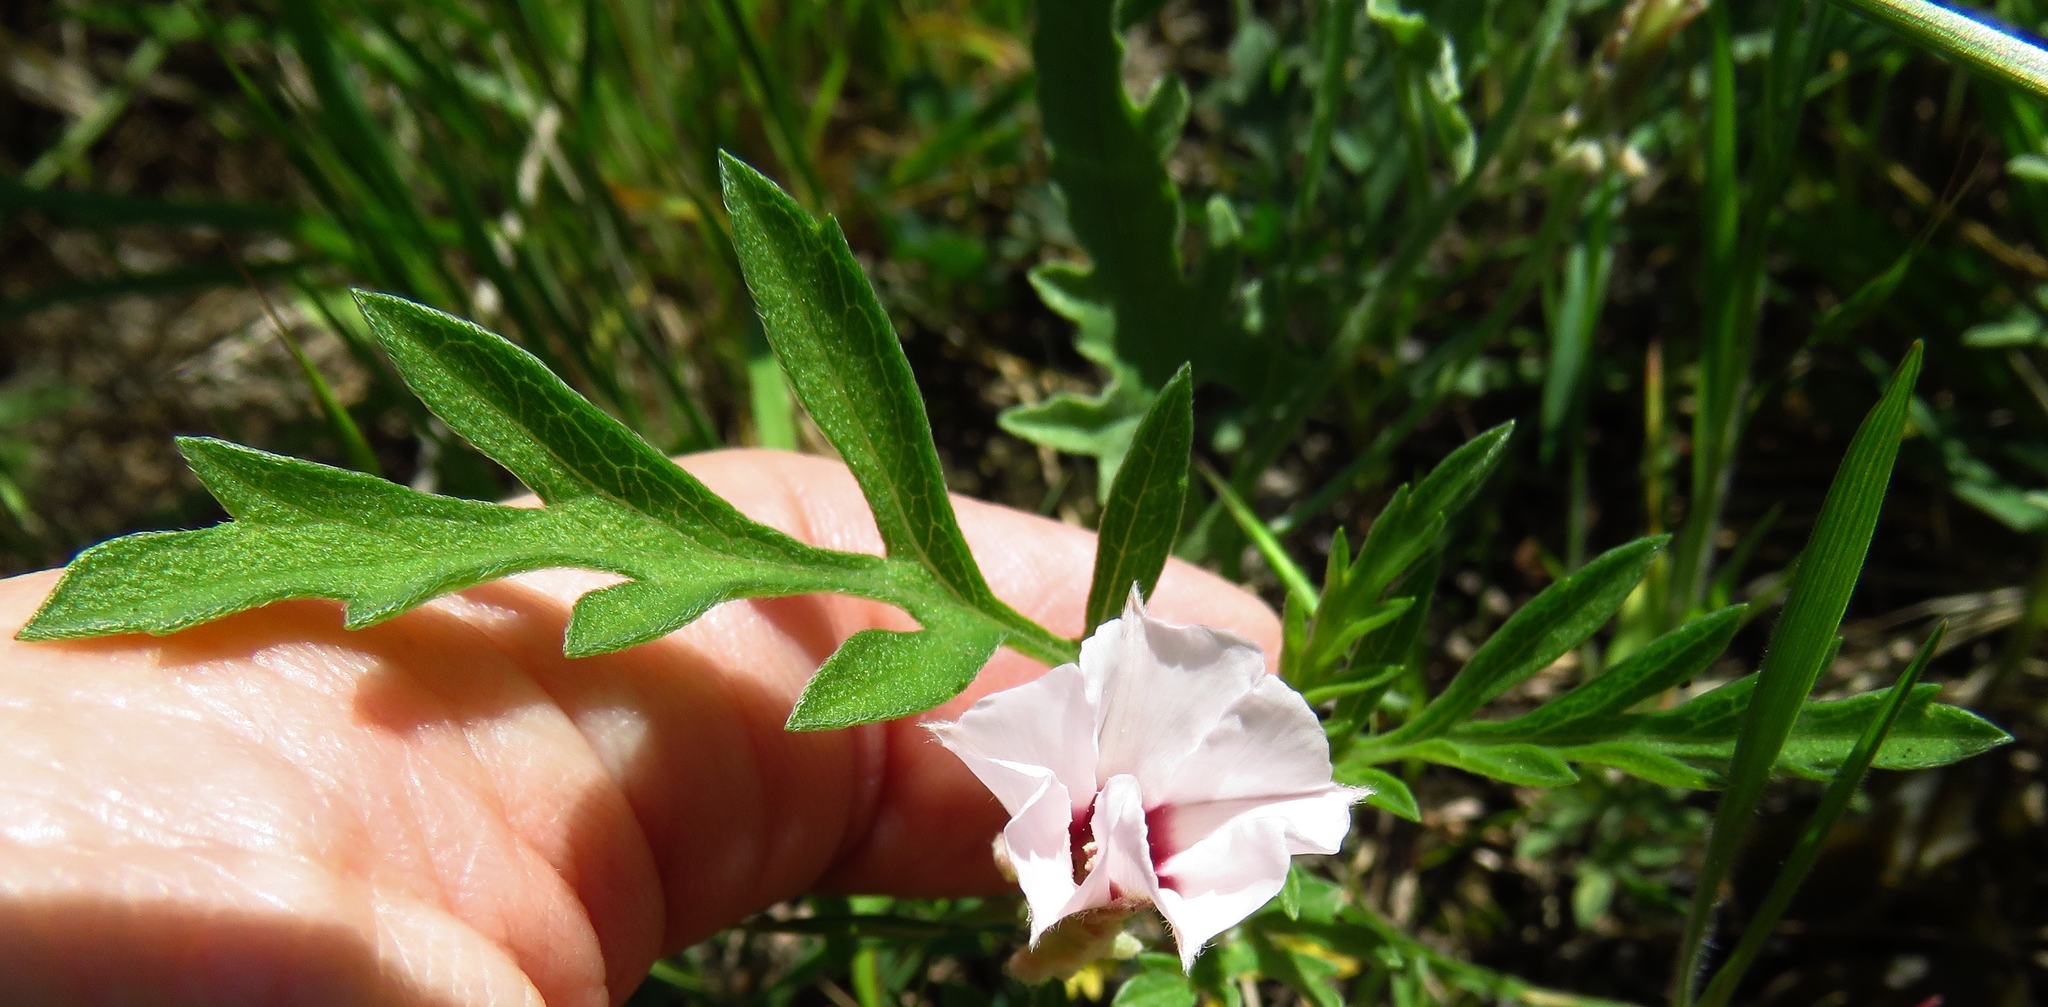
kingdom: Plantae
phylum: Tracheophyta
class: Magnoliopsida
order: Solanales
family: Convolvulaceae
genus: Convolvulus
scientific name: Convolvulus equitans
